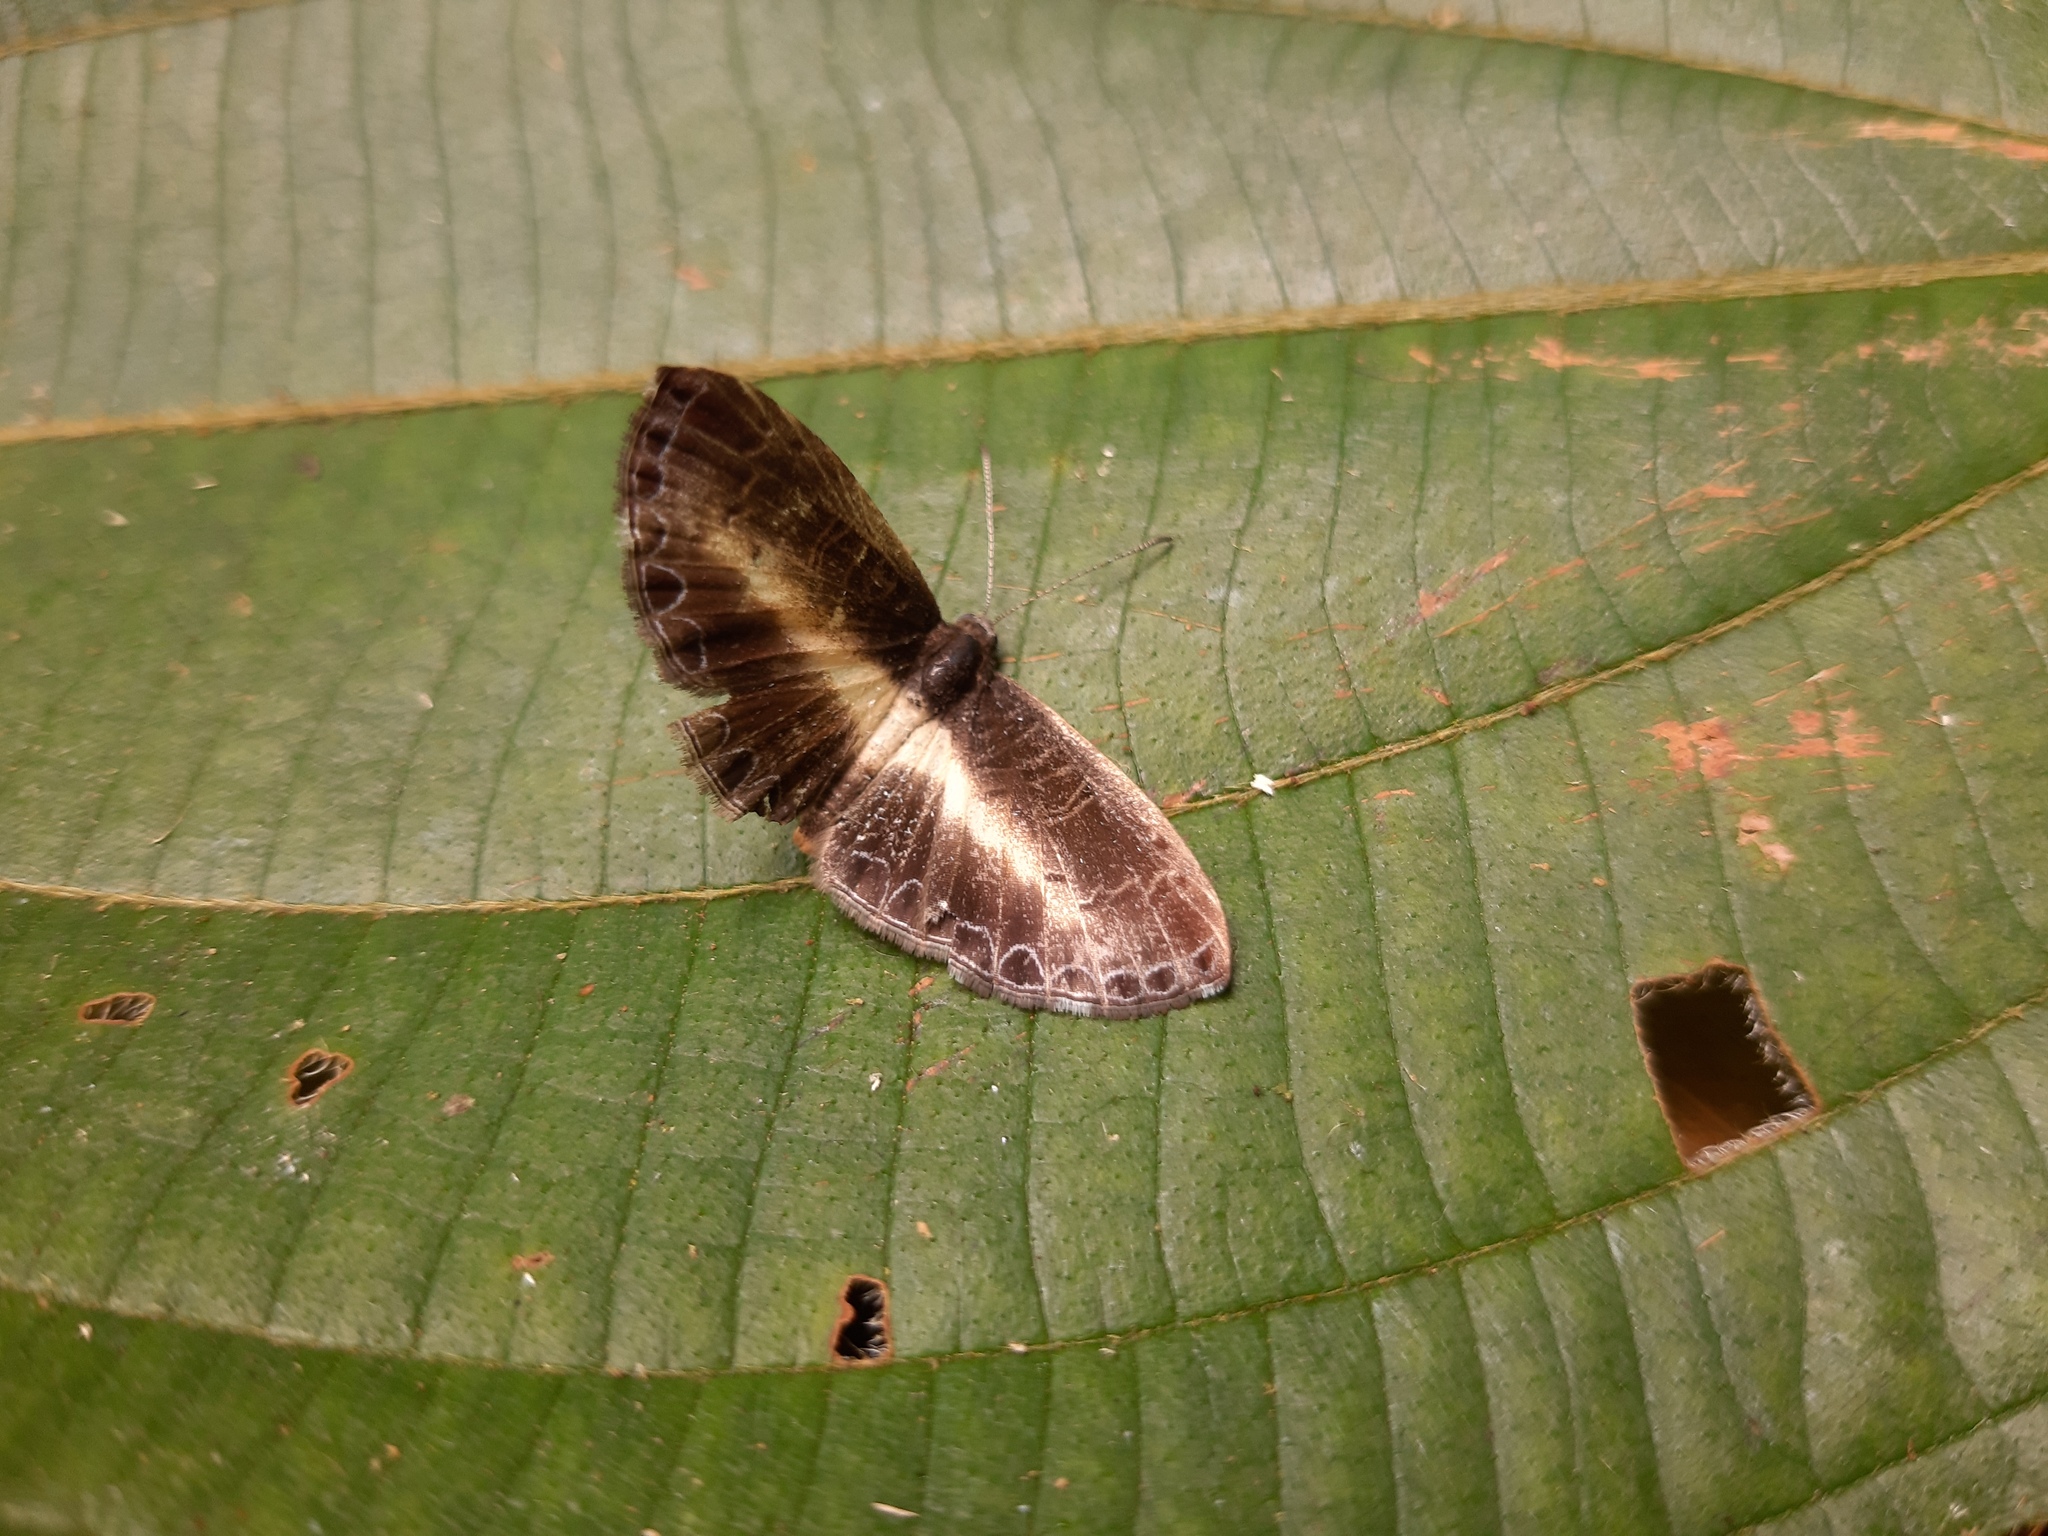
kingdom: Animalia
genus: Nymphidium
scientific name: Nymphidium baeotia
